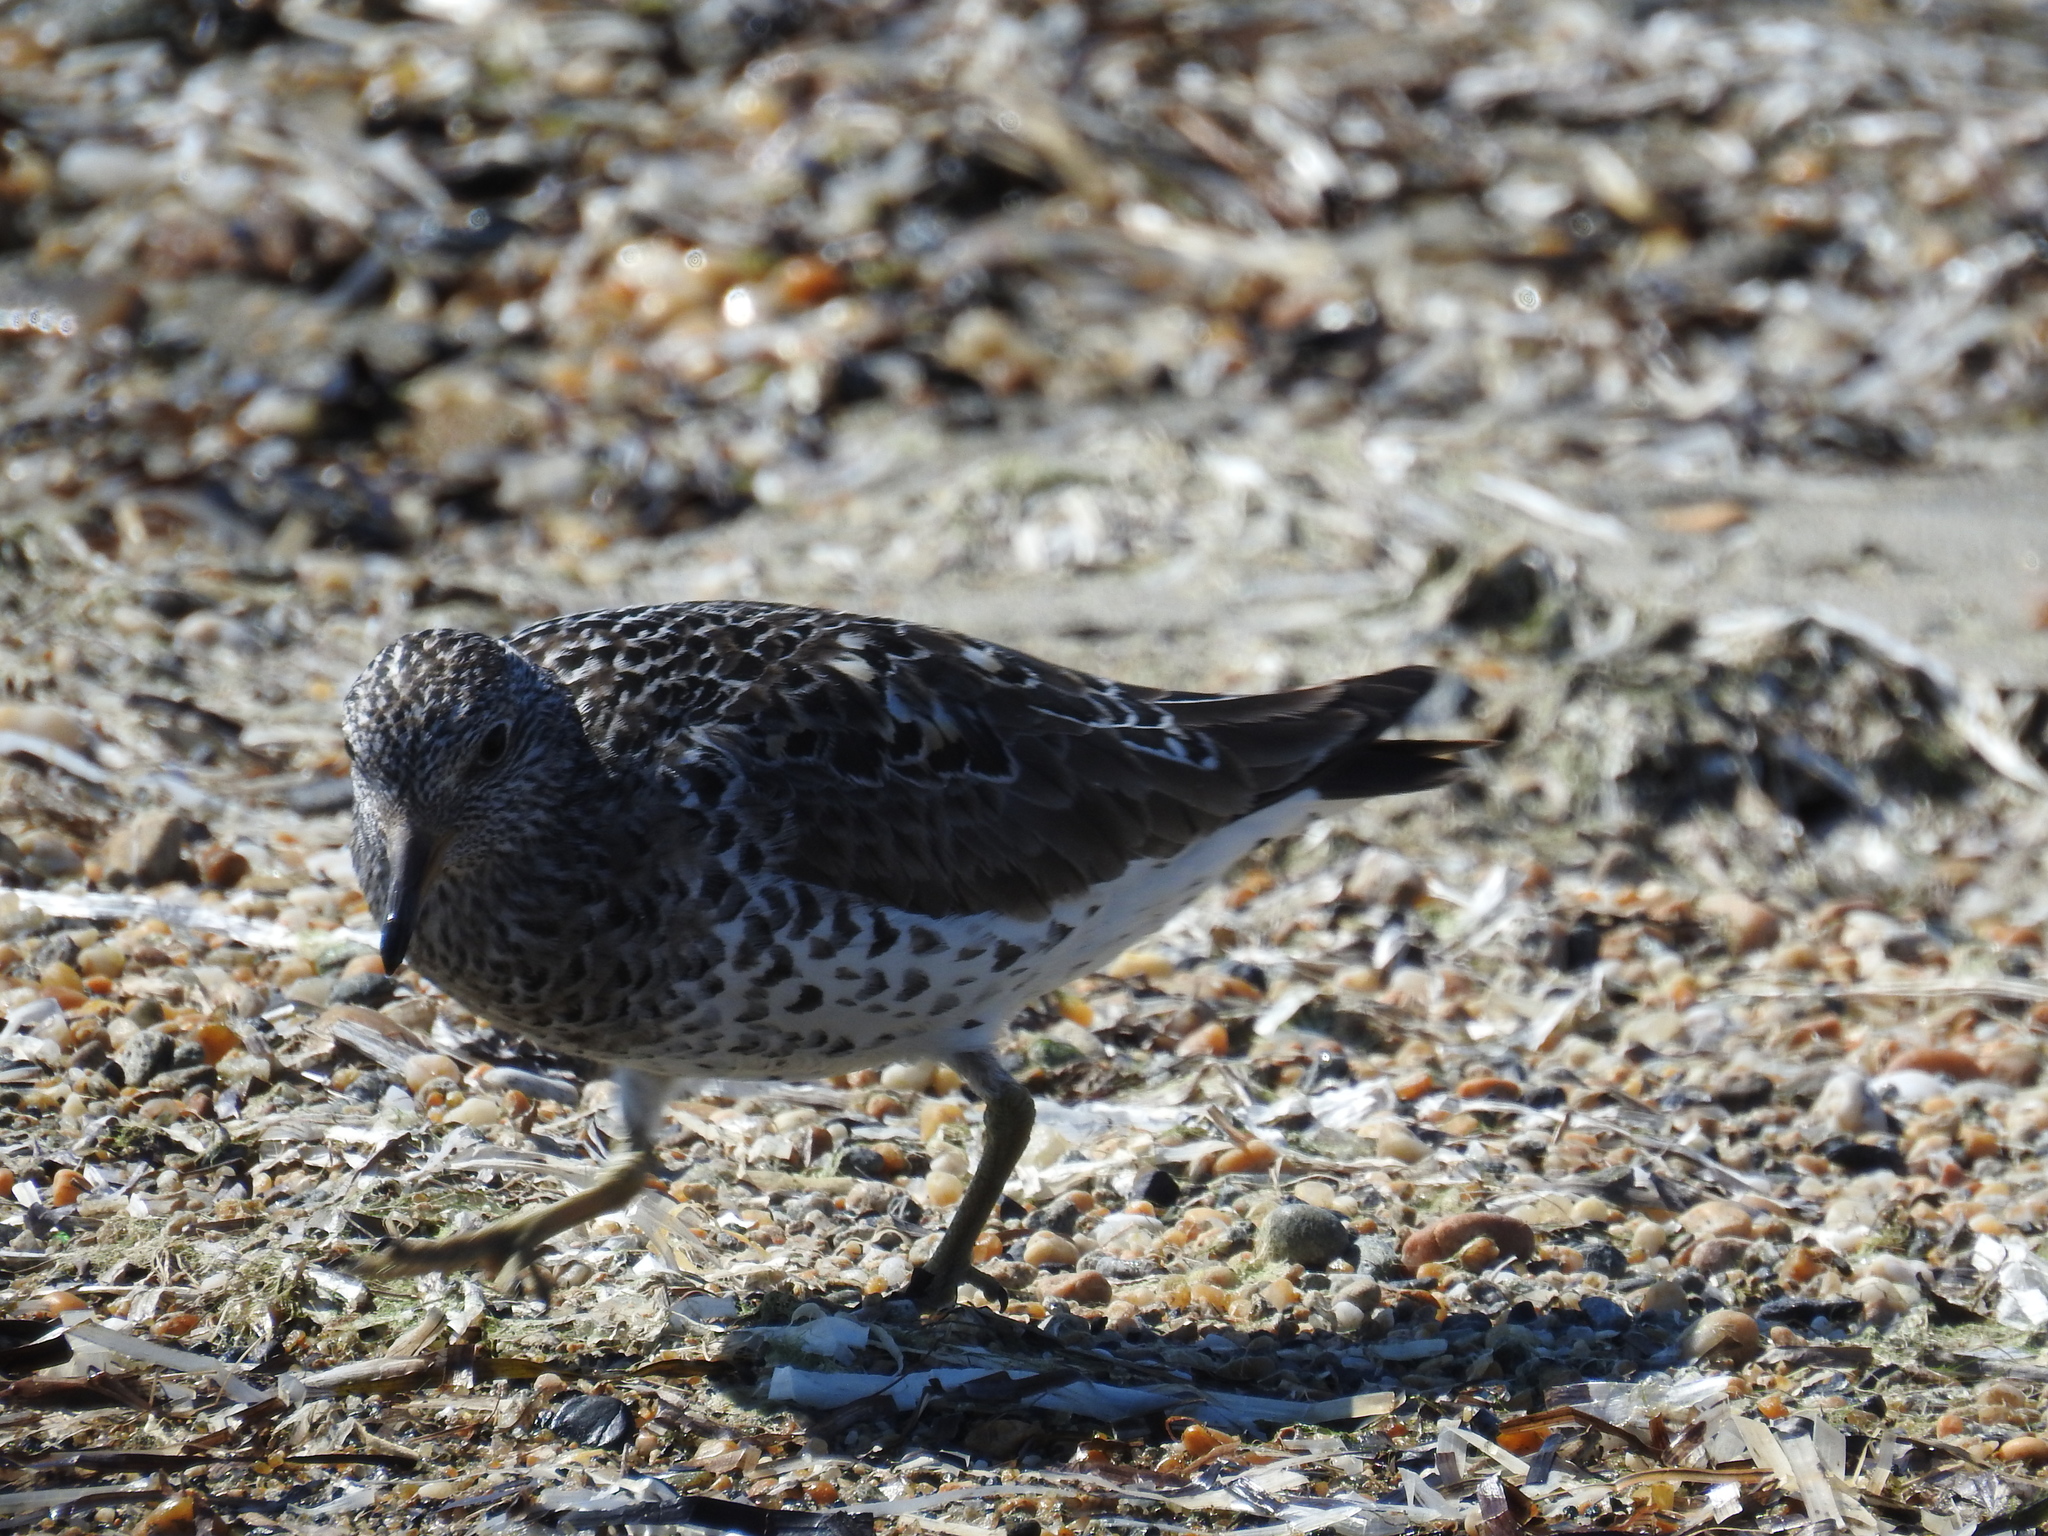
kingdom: Animalia
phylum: Chordata
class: Aves
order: Charadriiformes
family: Scolopacidae
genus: Calidris
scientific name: Calidris virgata
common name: Surfbird
